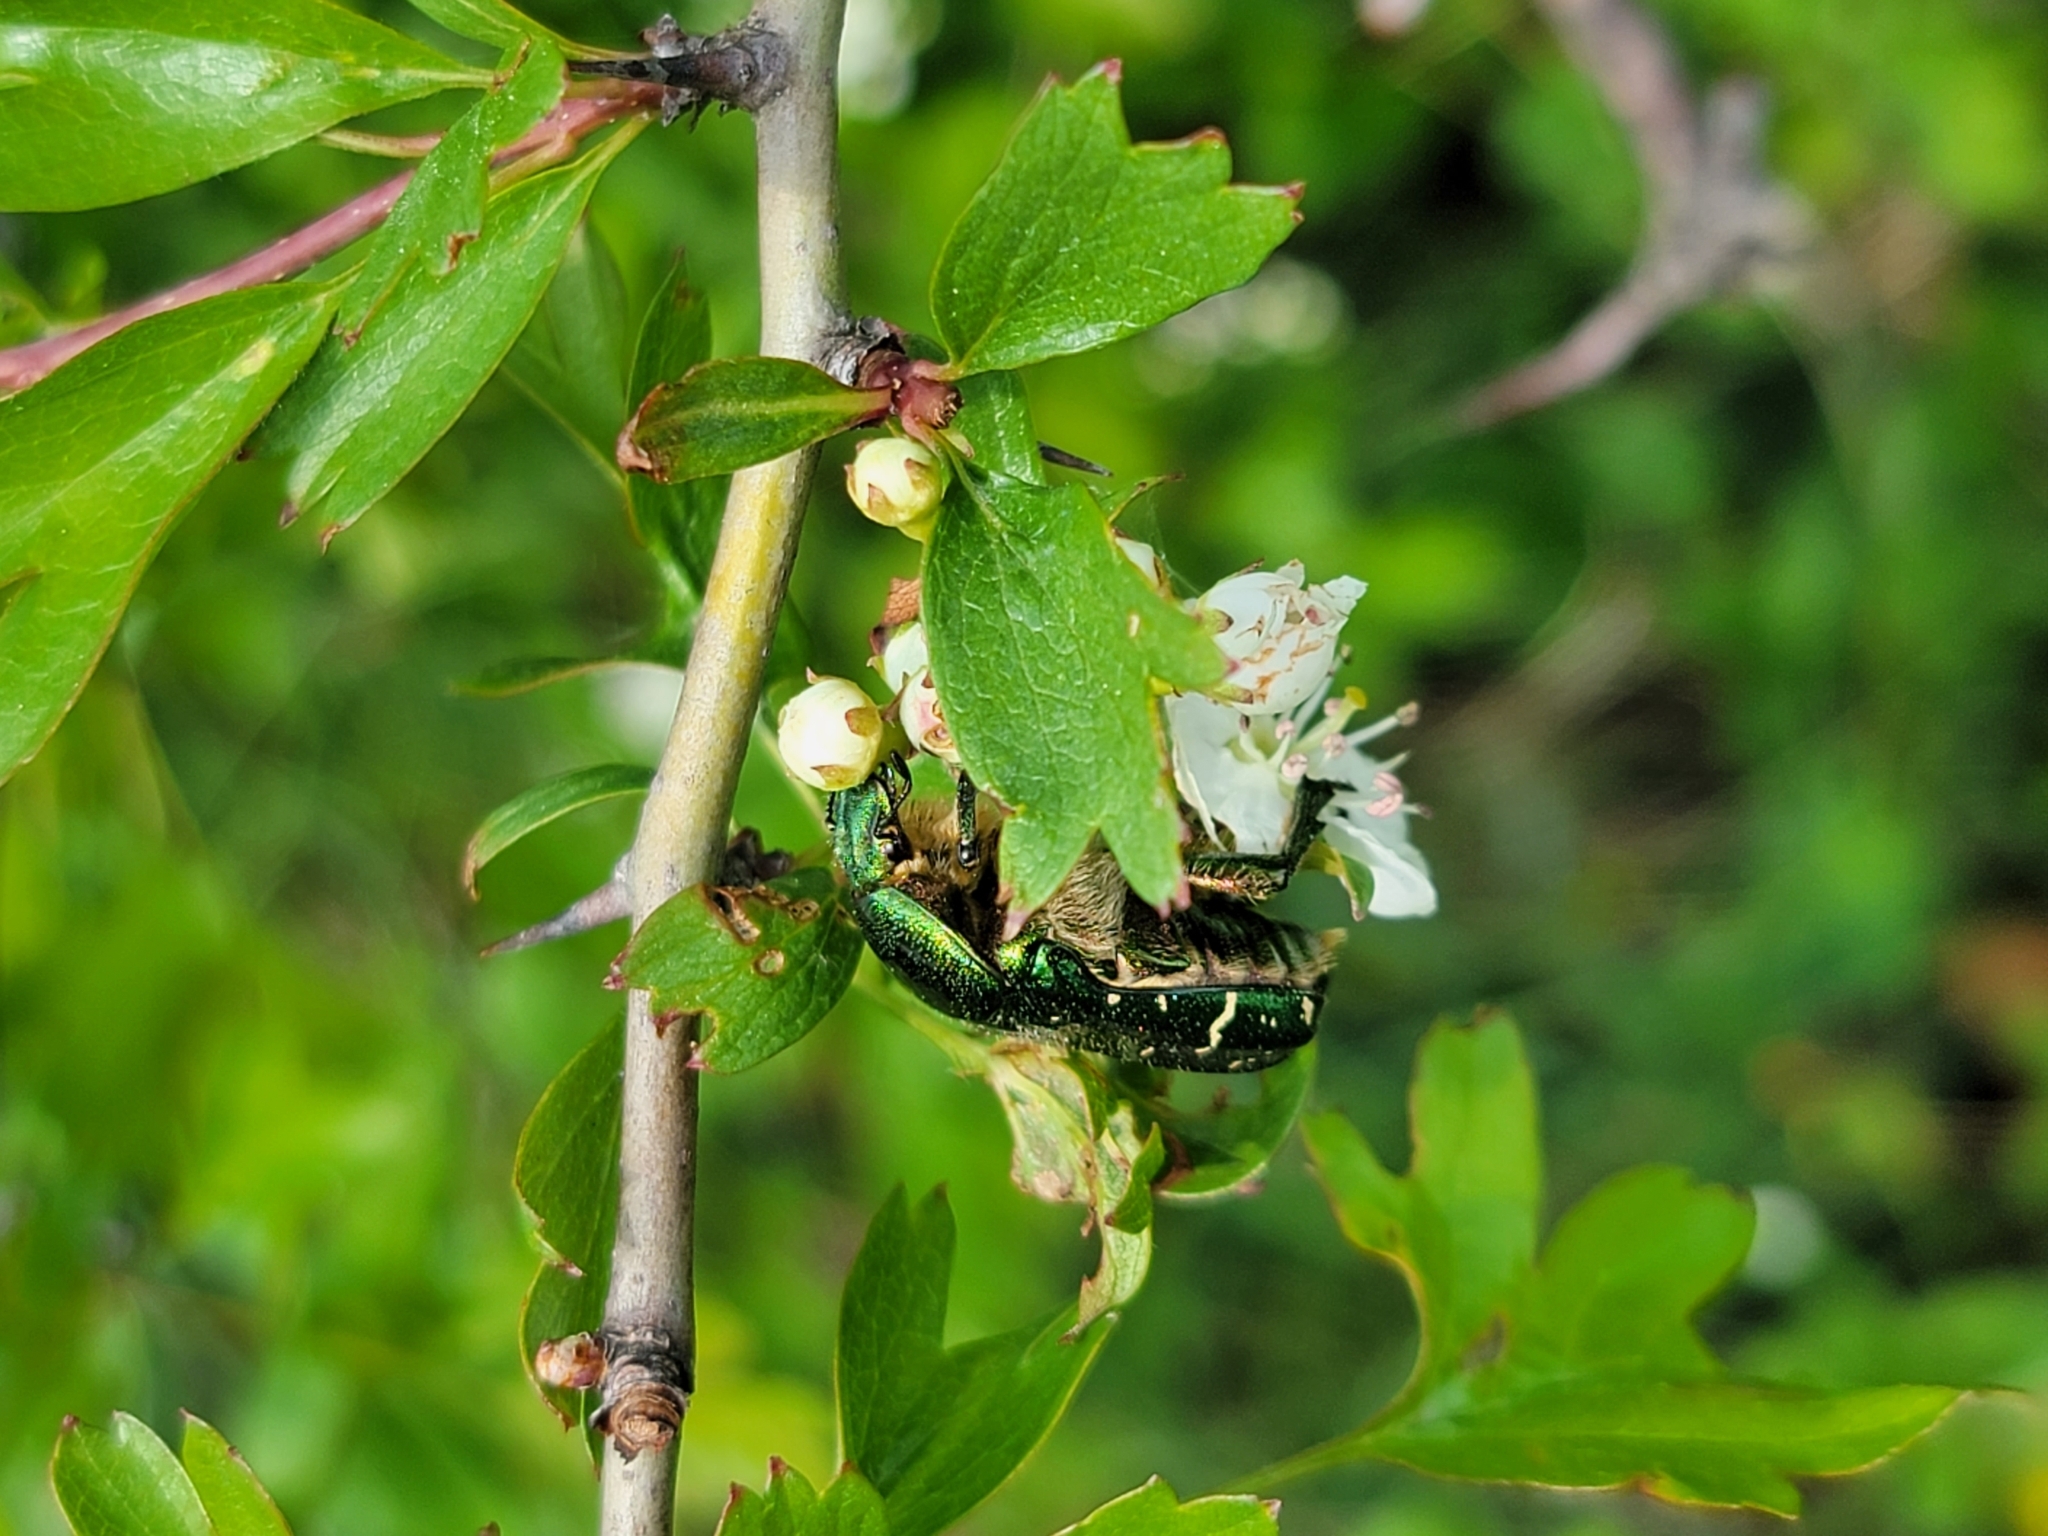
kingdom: Animalia
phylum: Arthropoda
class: Insecta
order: Coleoptera
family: Scarabaeidae
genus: Cetonia
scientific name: Cetonia aurata
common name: Rose chafer
